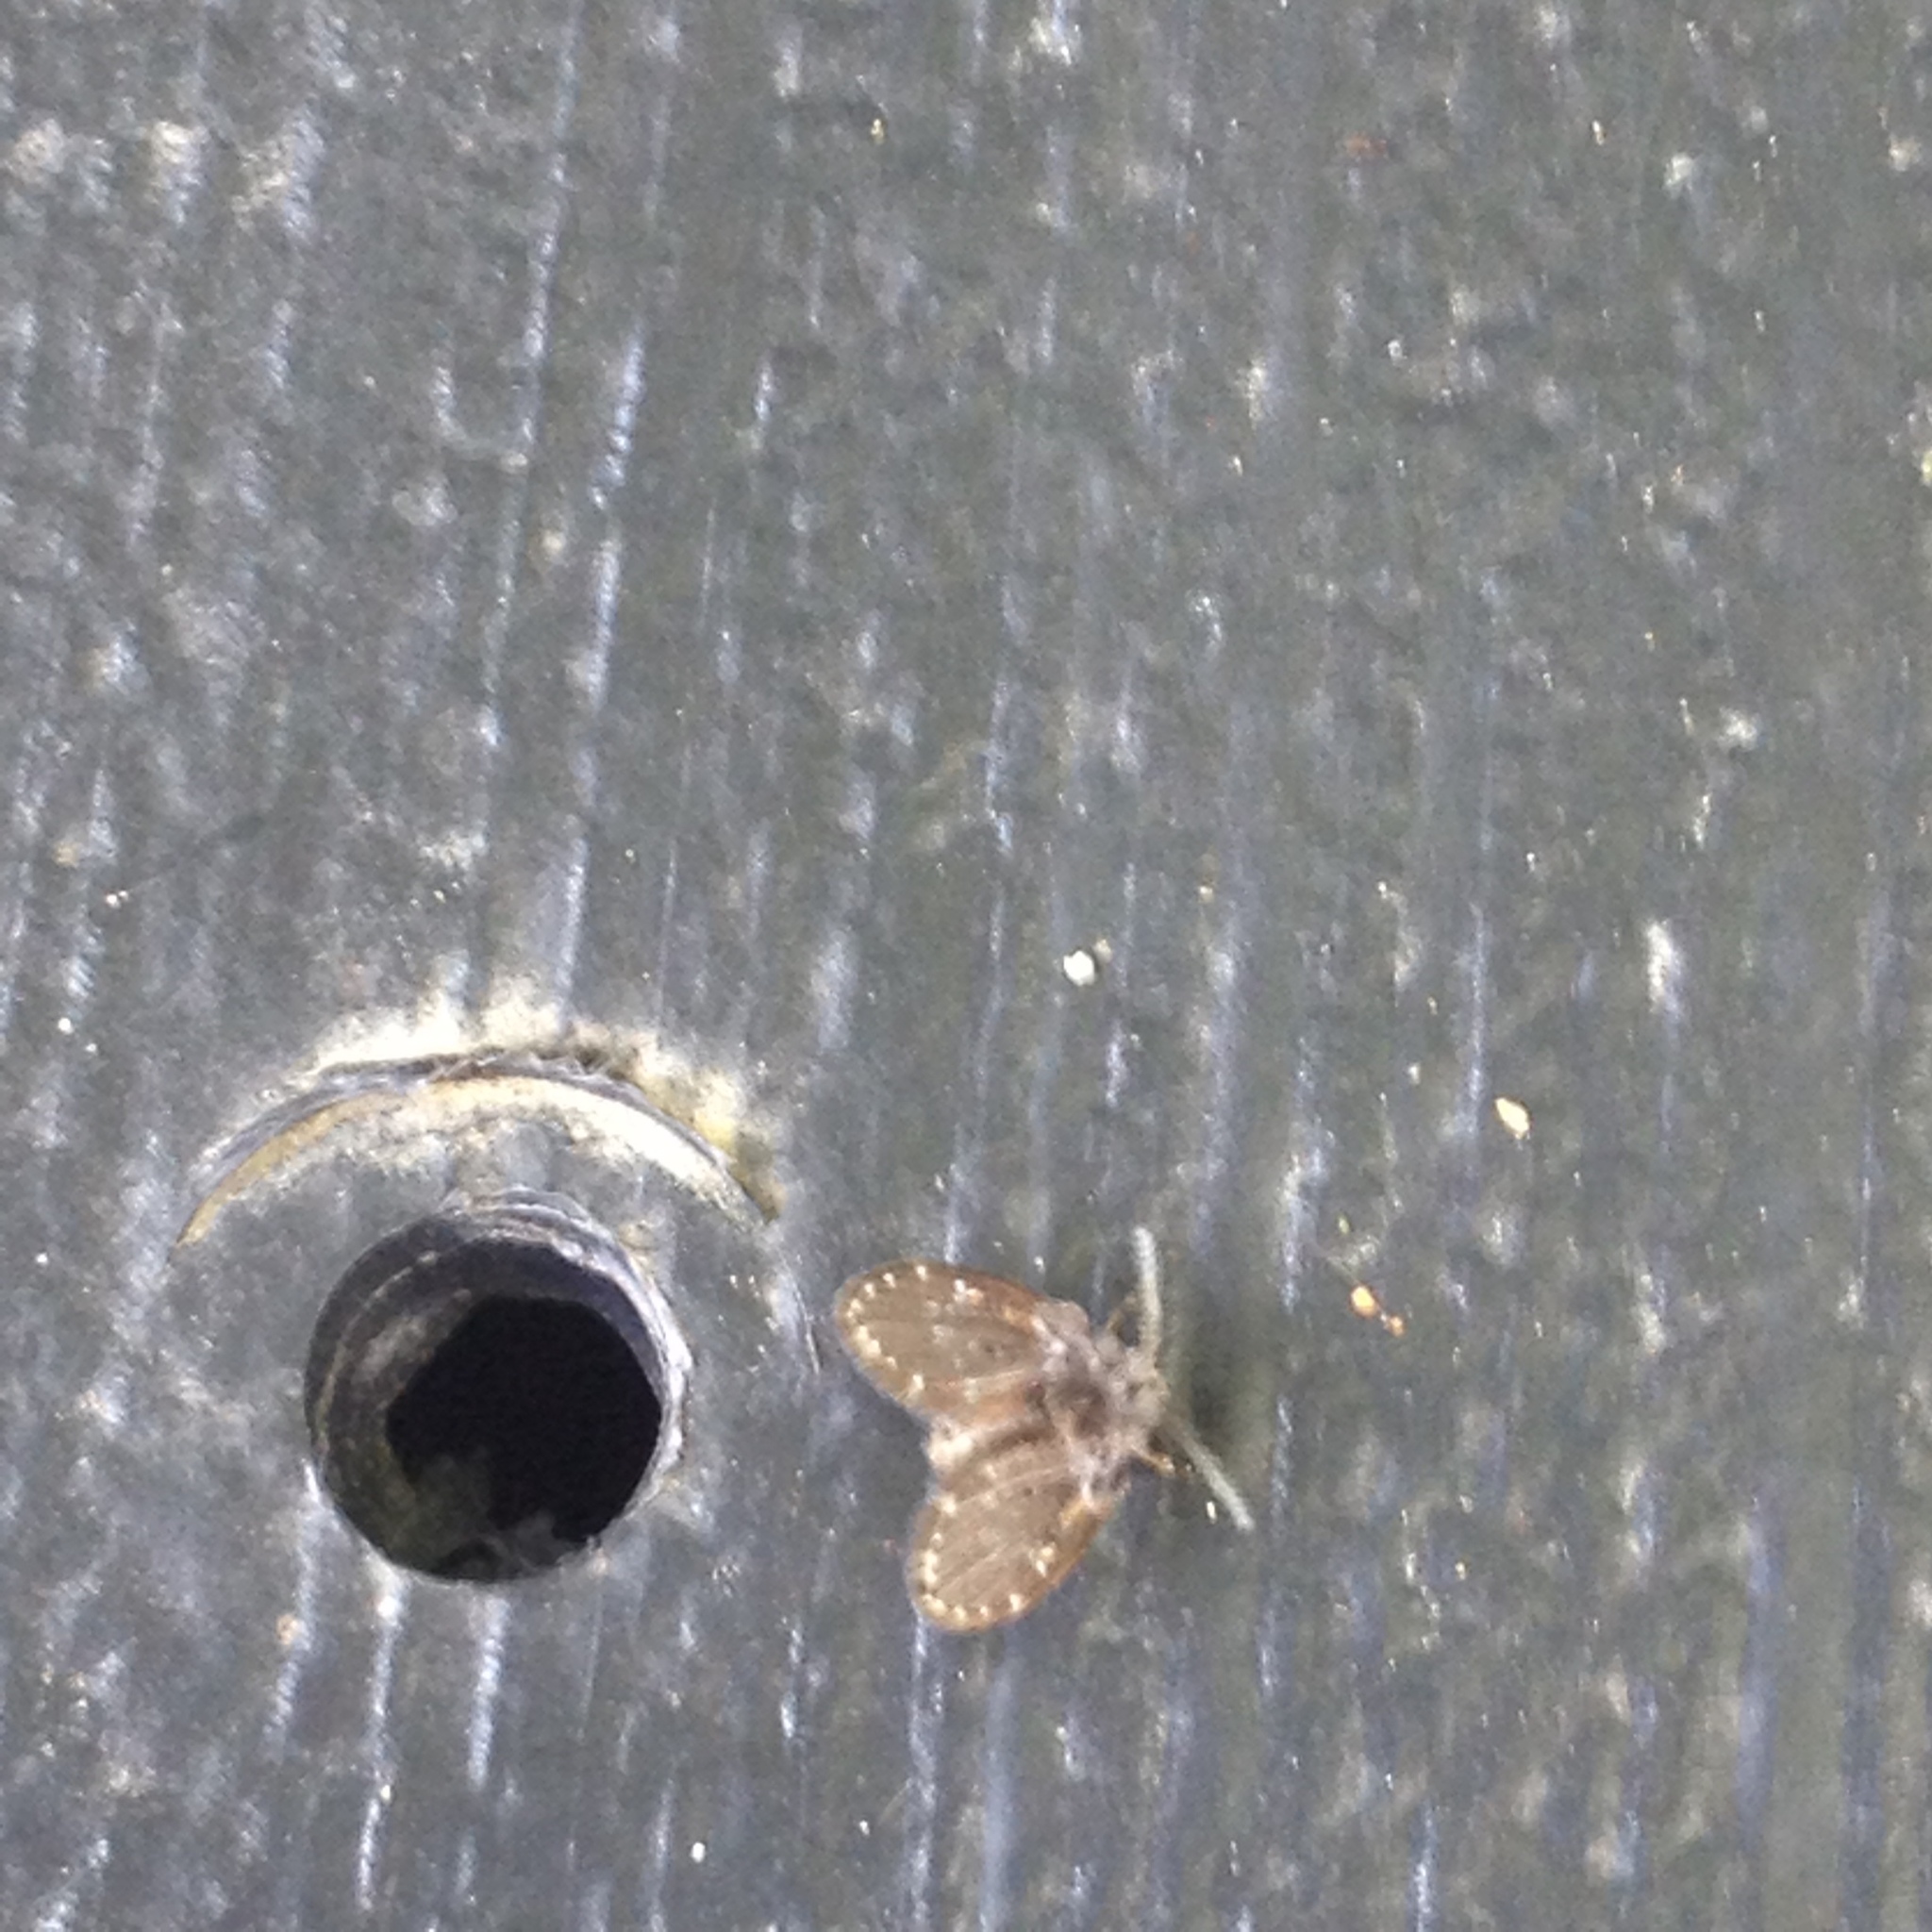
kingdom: Animalia
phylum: Arthropoda
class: Insecta
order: Diptera
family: Psychodidae
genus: Clogmia
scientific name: Clogmia albipunctatus
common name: White-spotted moth fly
